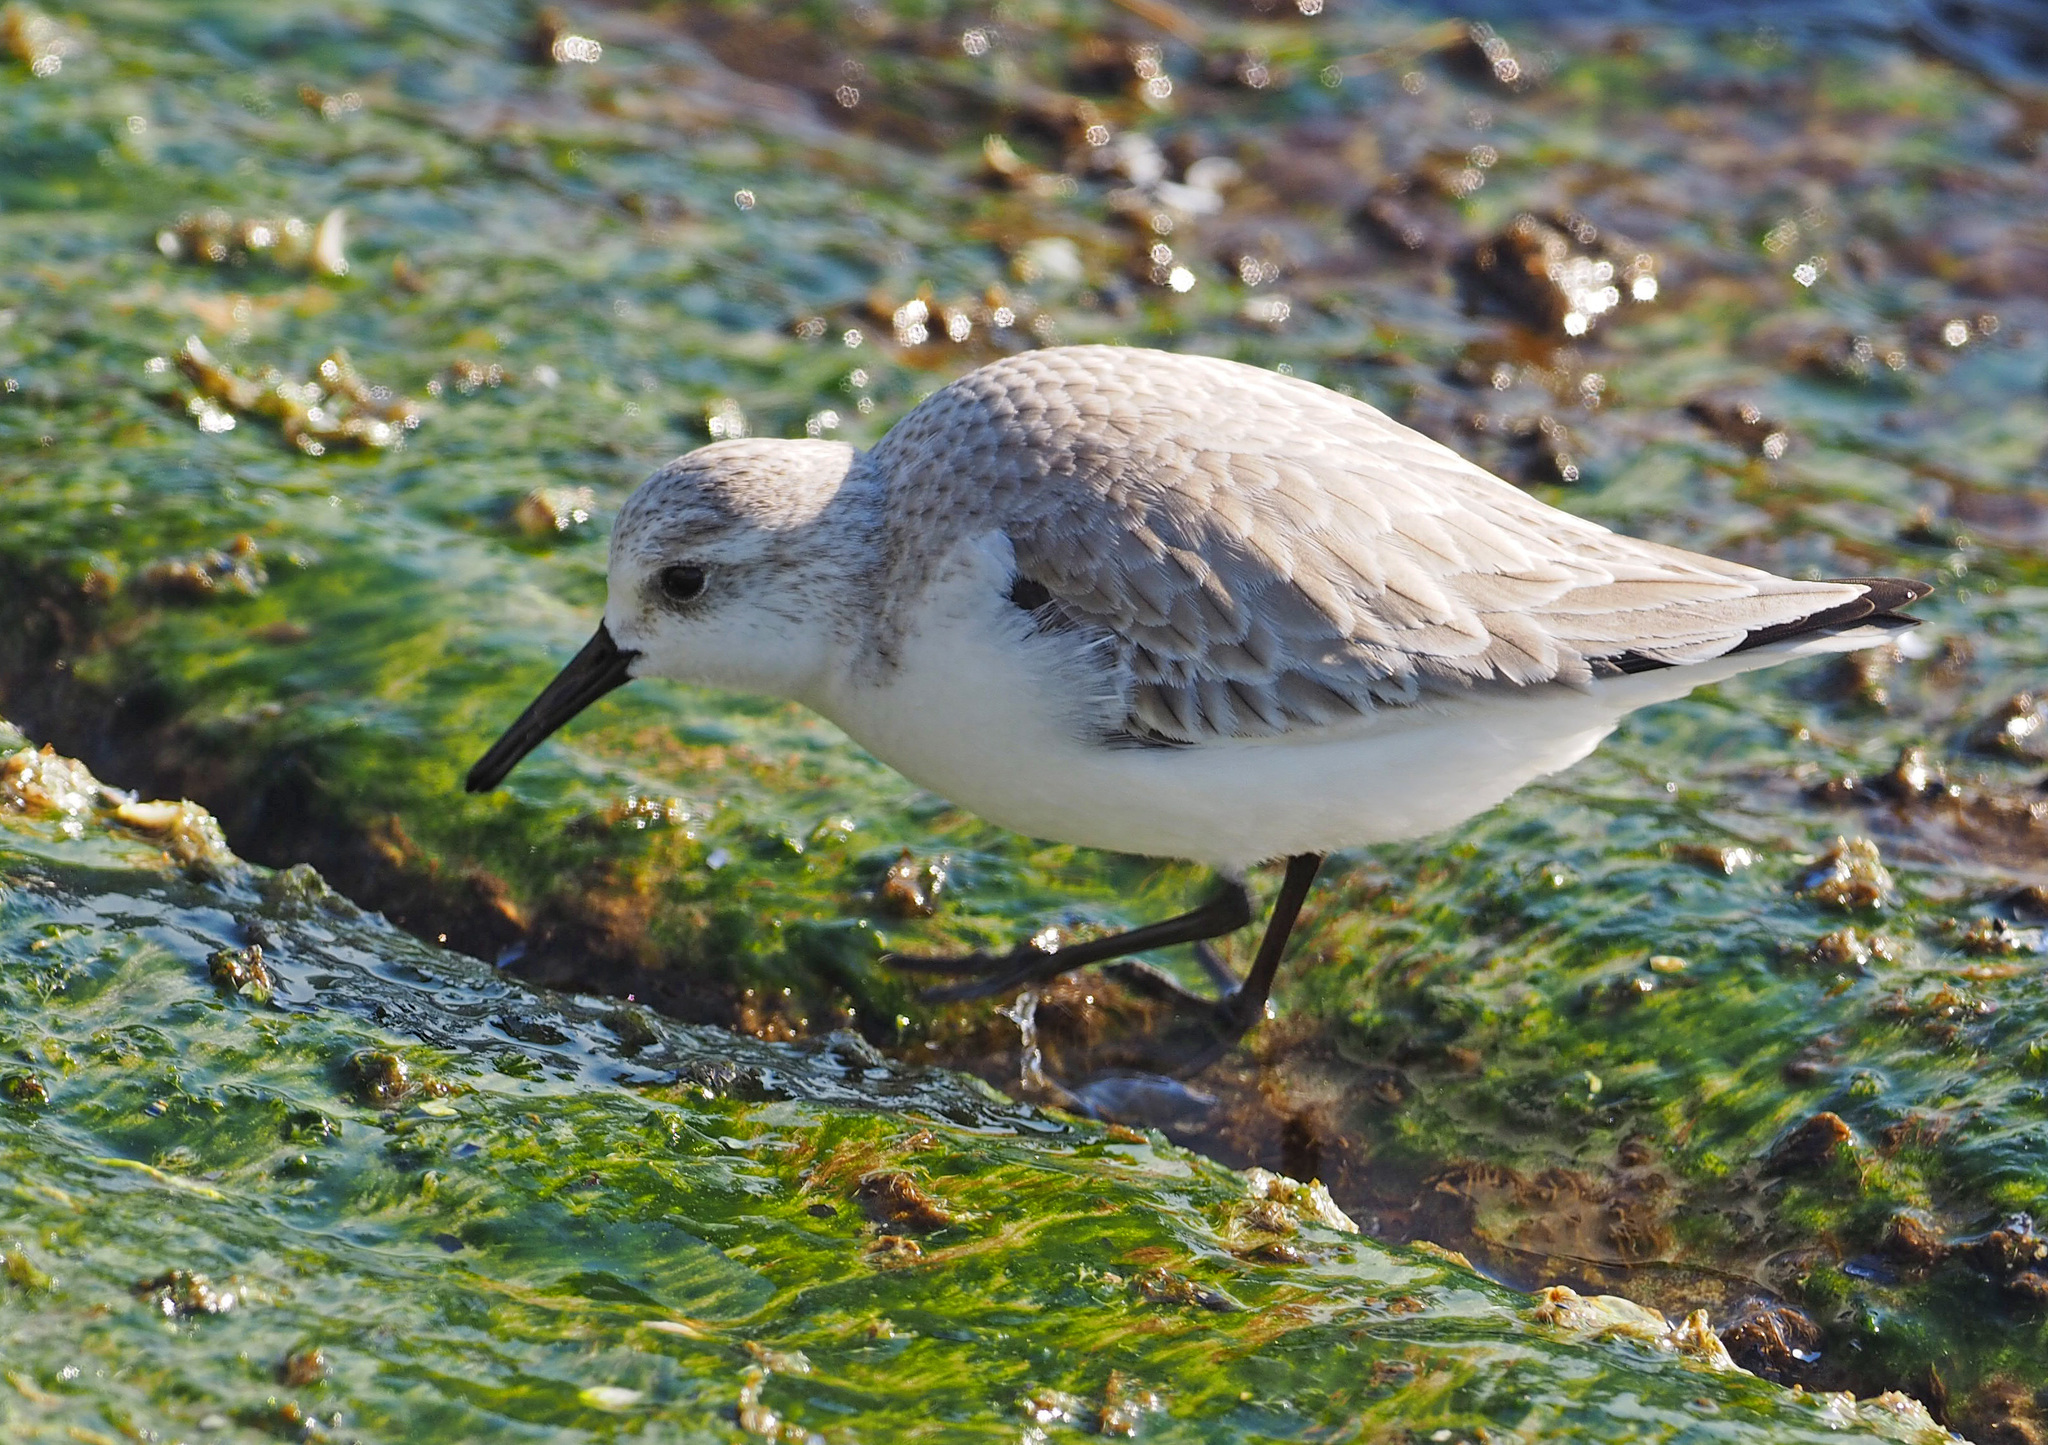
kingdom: Animalia
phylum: Chordata
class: Aves
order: Charadriiformes
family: Scolopacidae
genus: Calidris
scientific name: Calidris alba
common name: Sanderling
